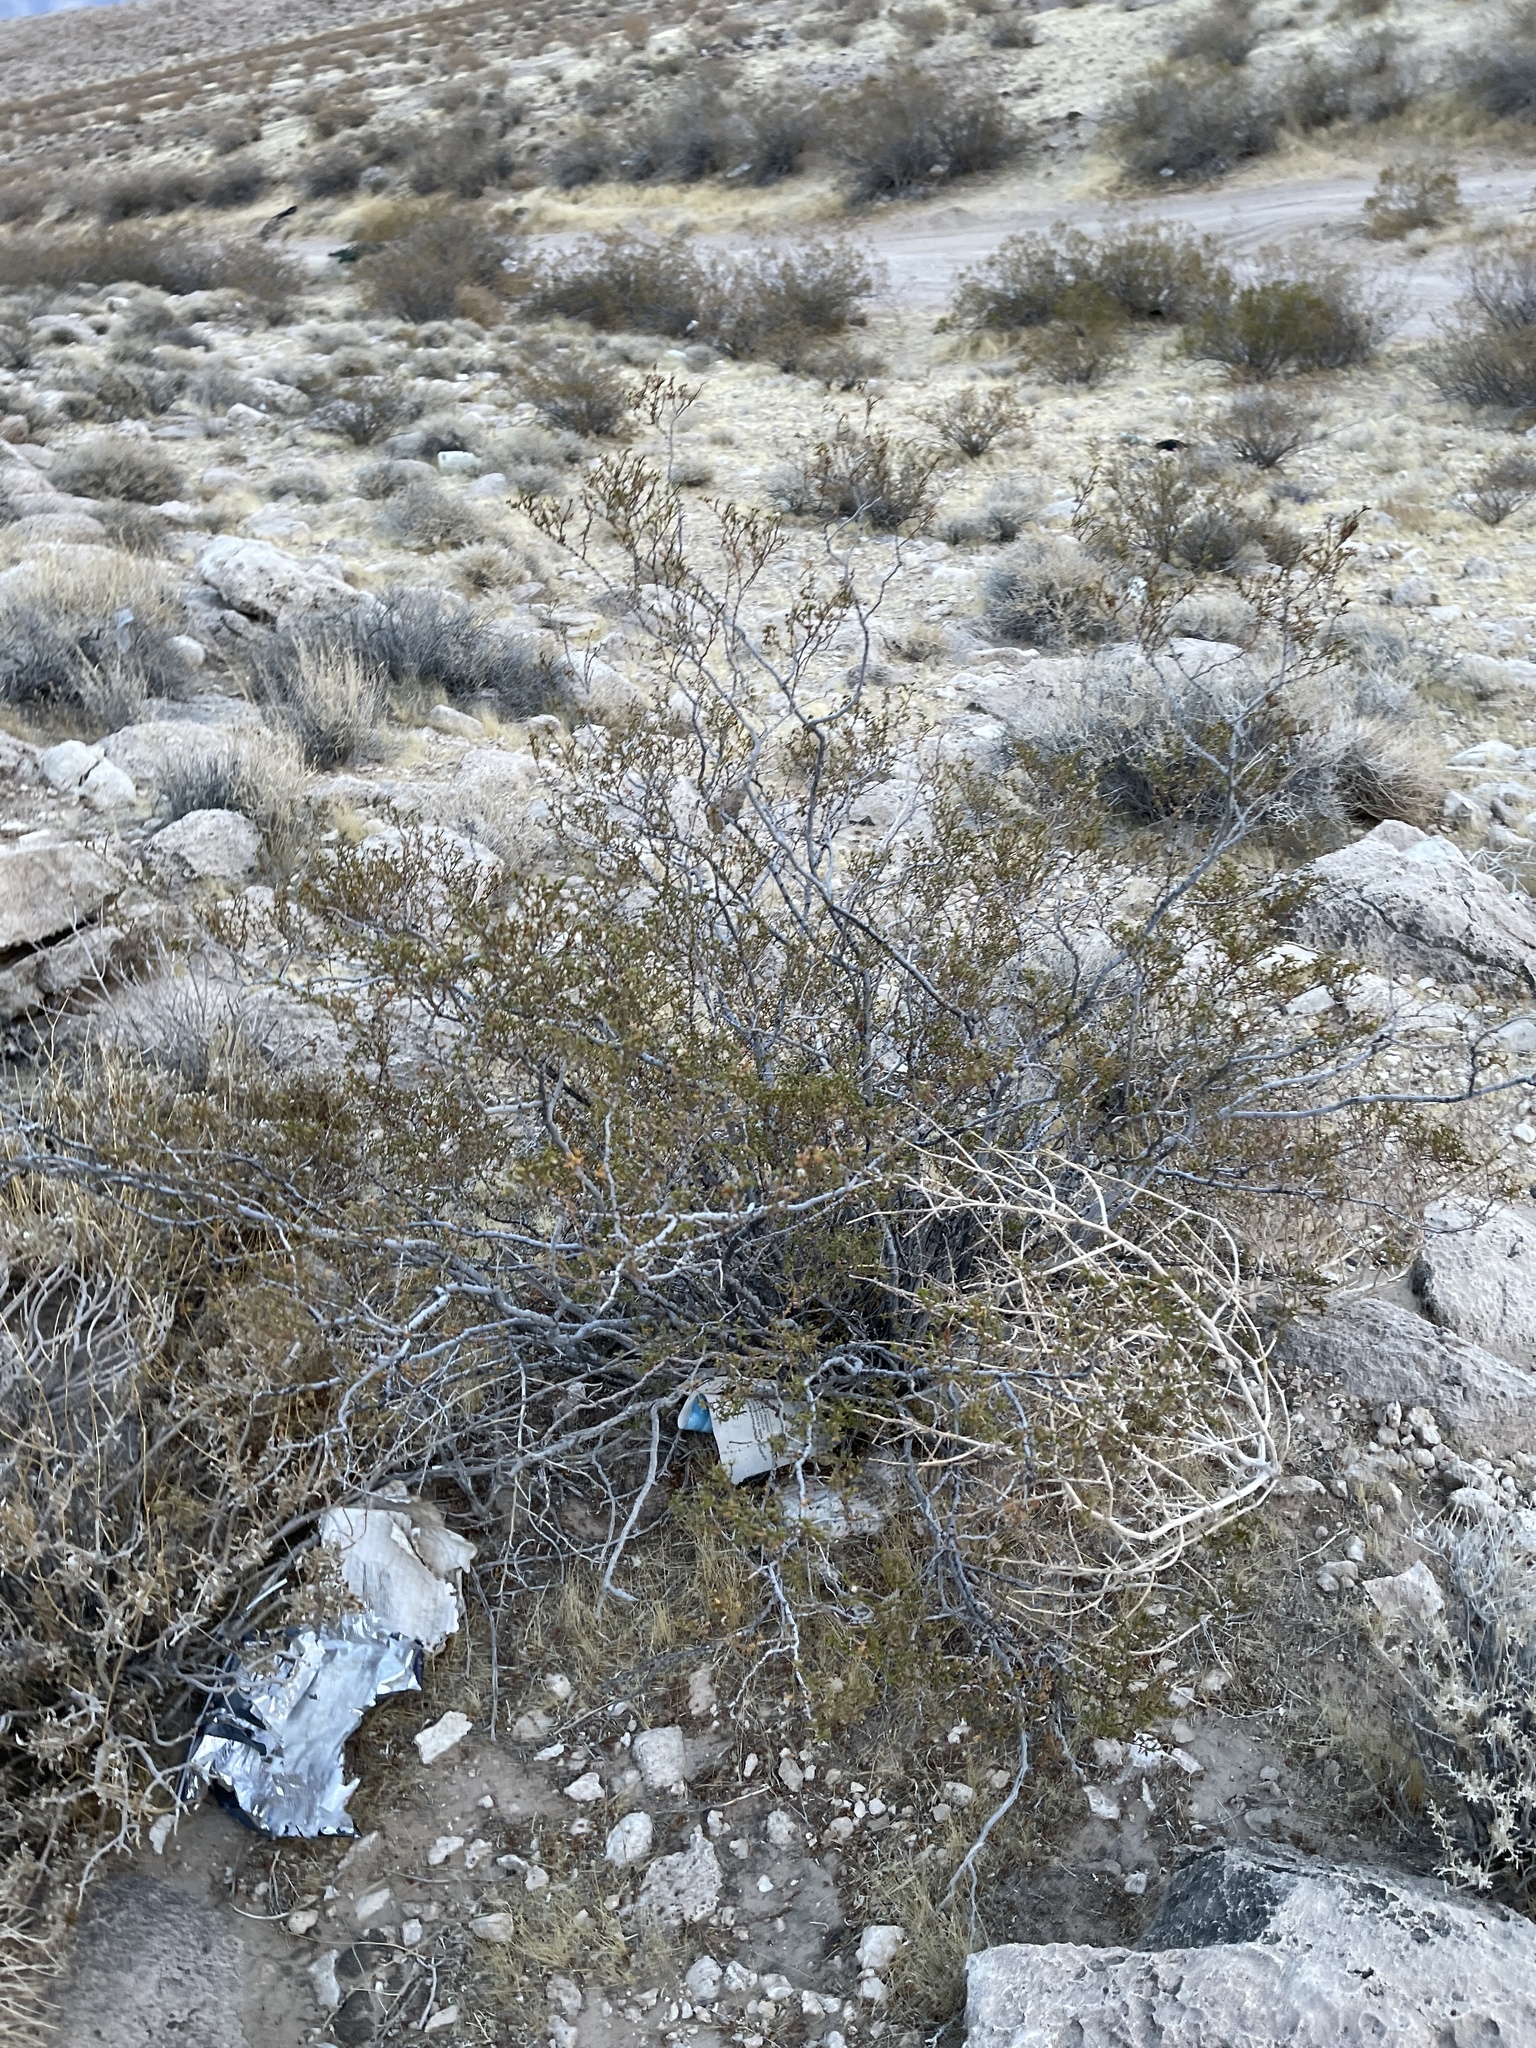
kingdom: Plantae
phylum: Tracheophyta
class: Magnoliopsida
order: Zygophyllales
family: Zygophyllaceae
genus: Larrea
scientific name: Larrea tridentata
